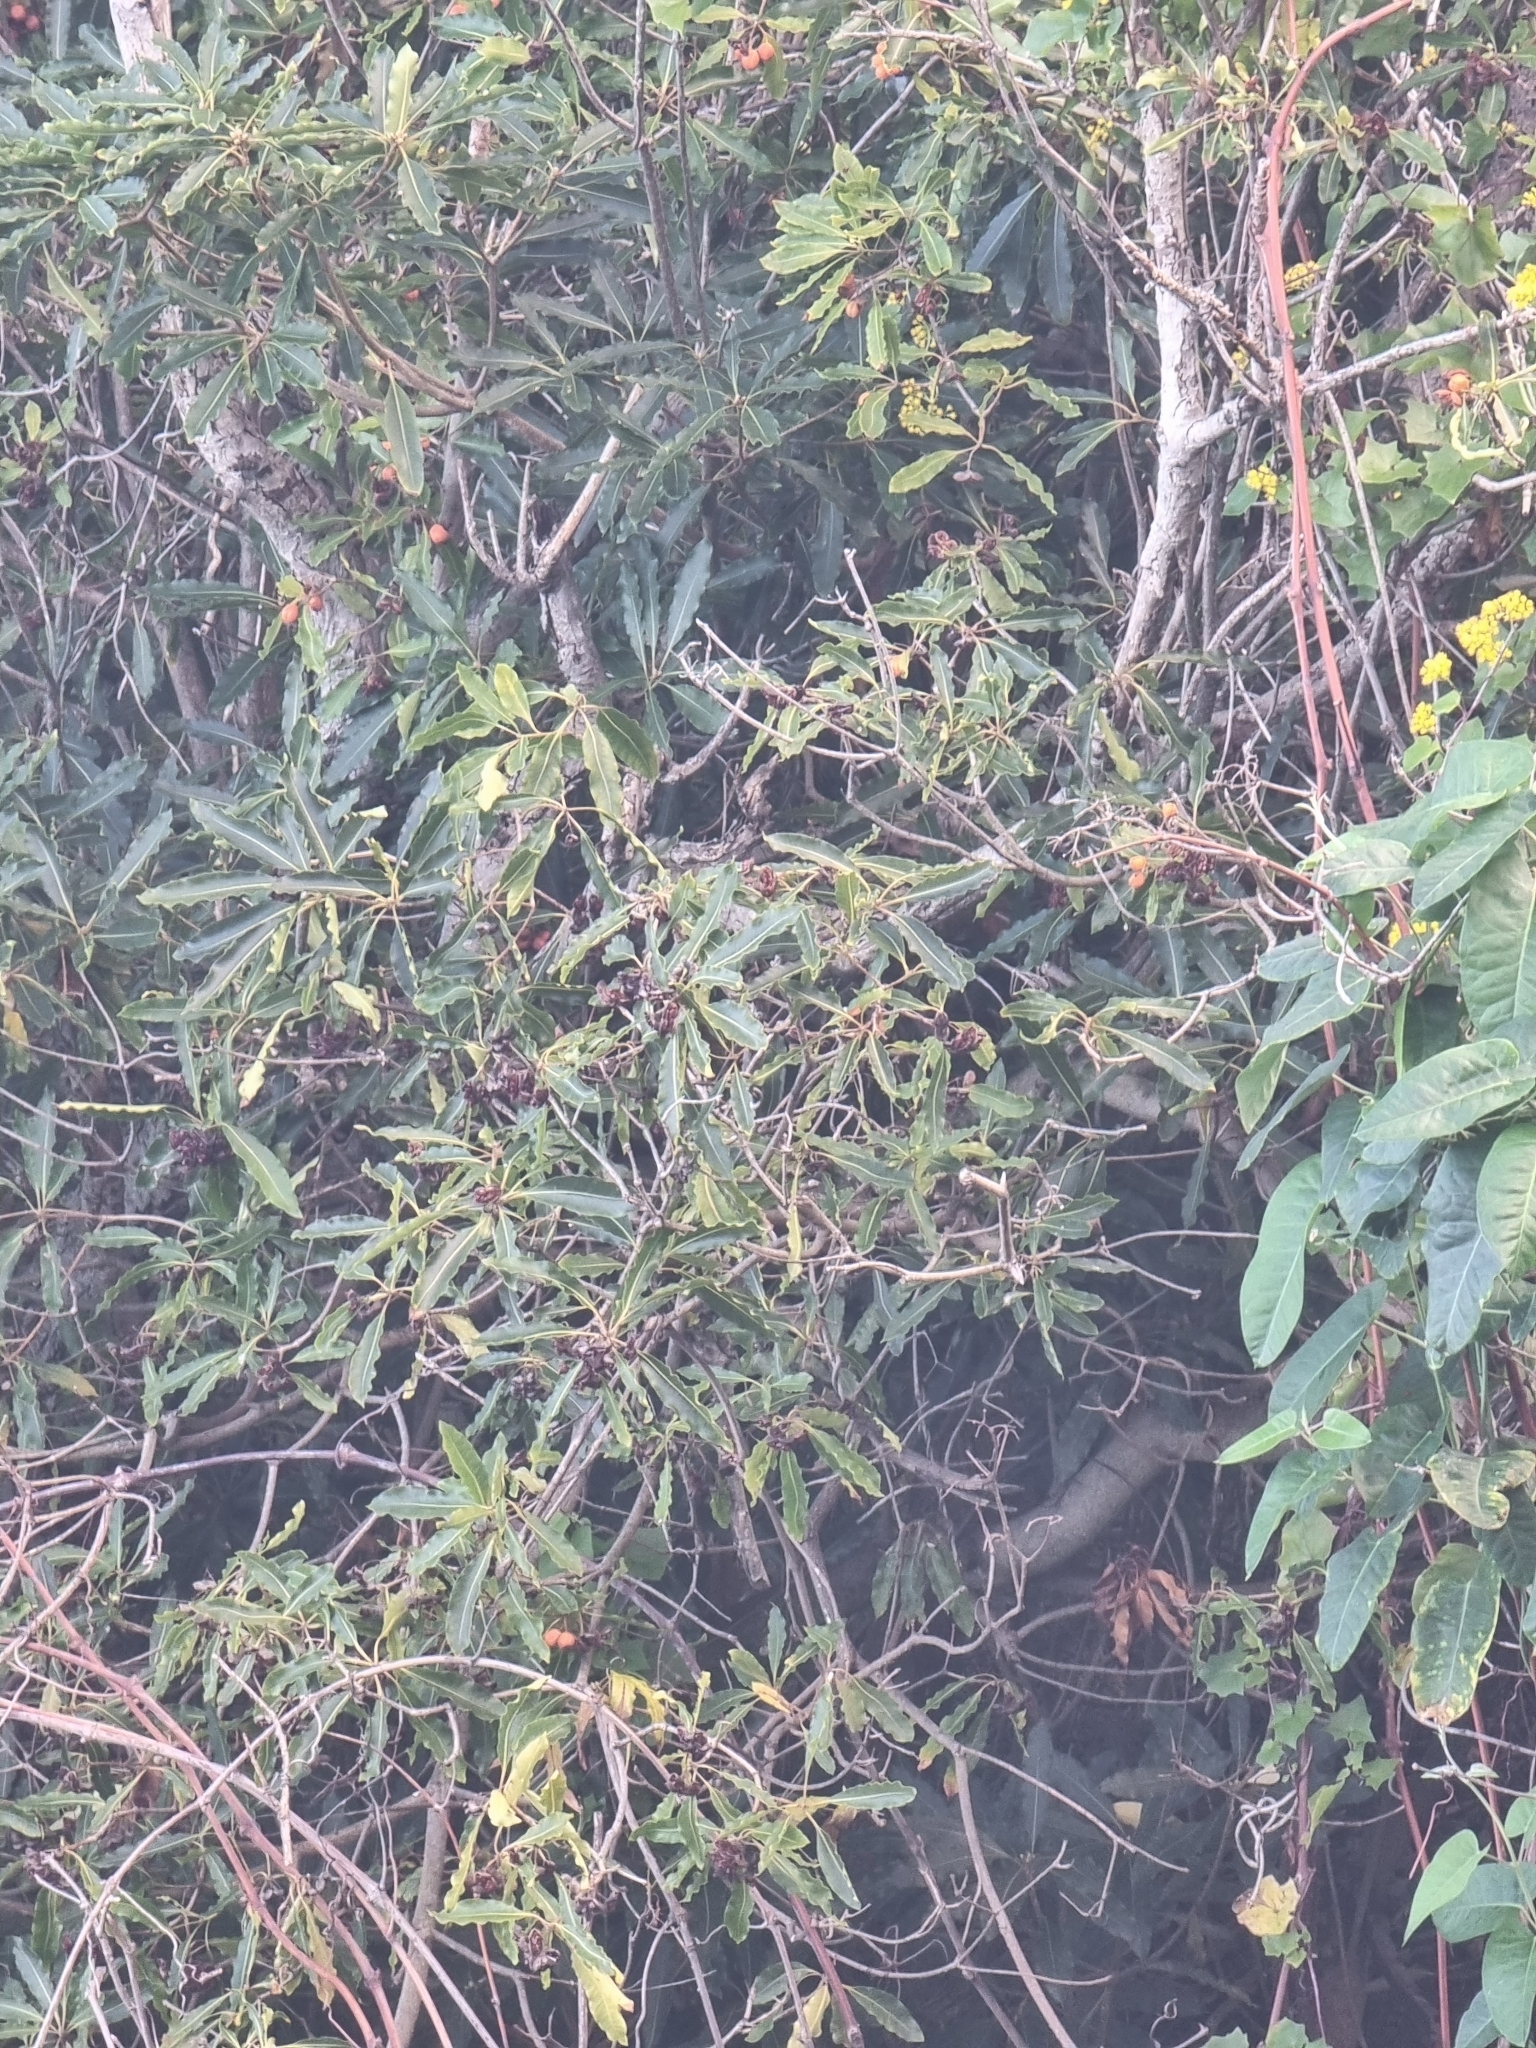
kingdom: Plantae
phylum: Tracheophyta
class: Magnoliopsida
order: Apiales
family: Pittosporaceae
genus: Pittosporum
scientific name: Pittosporum undulatum
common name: Australian cheesewood
